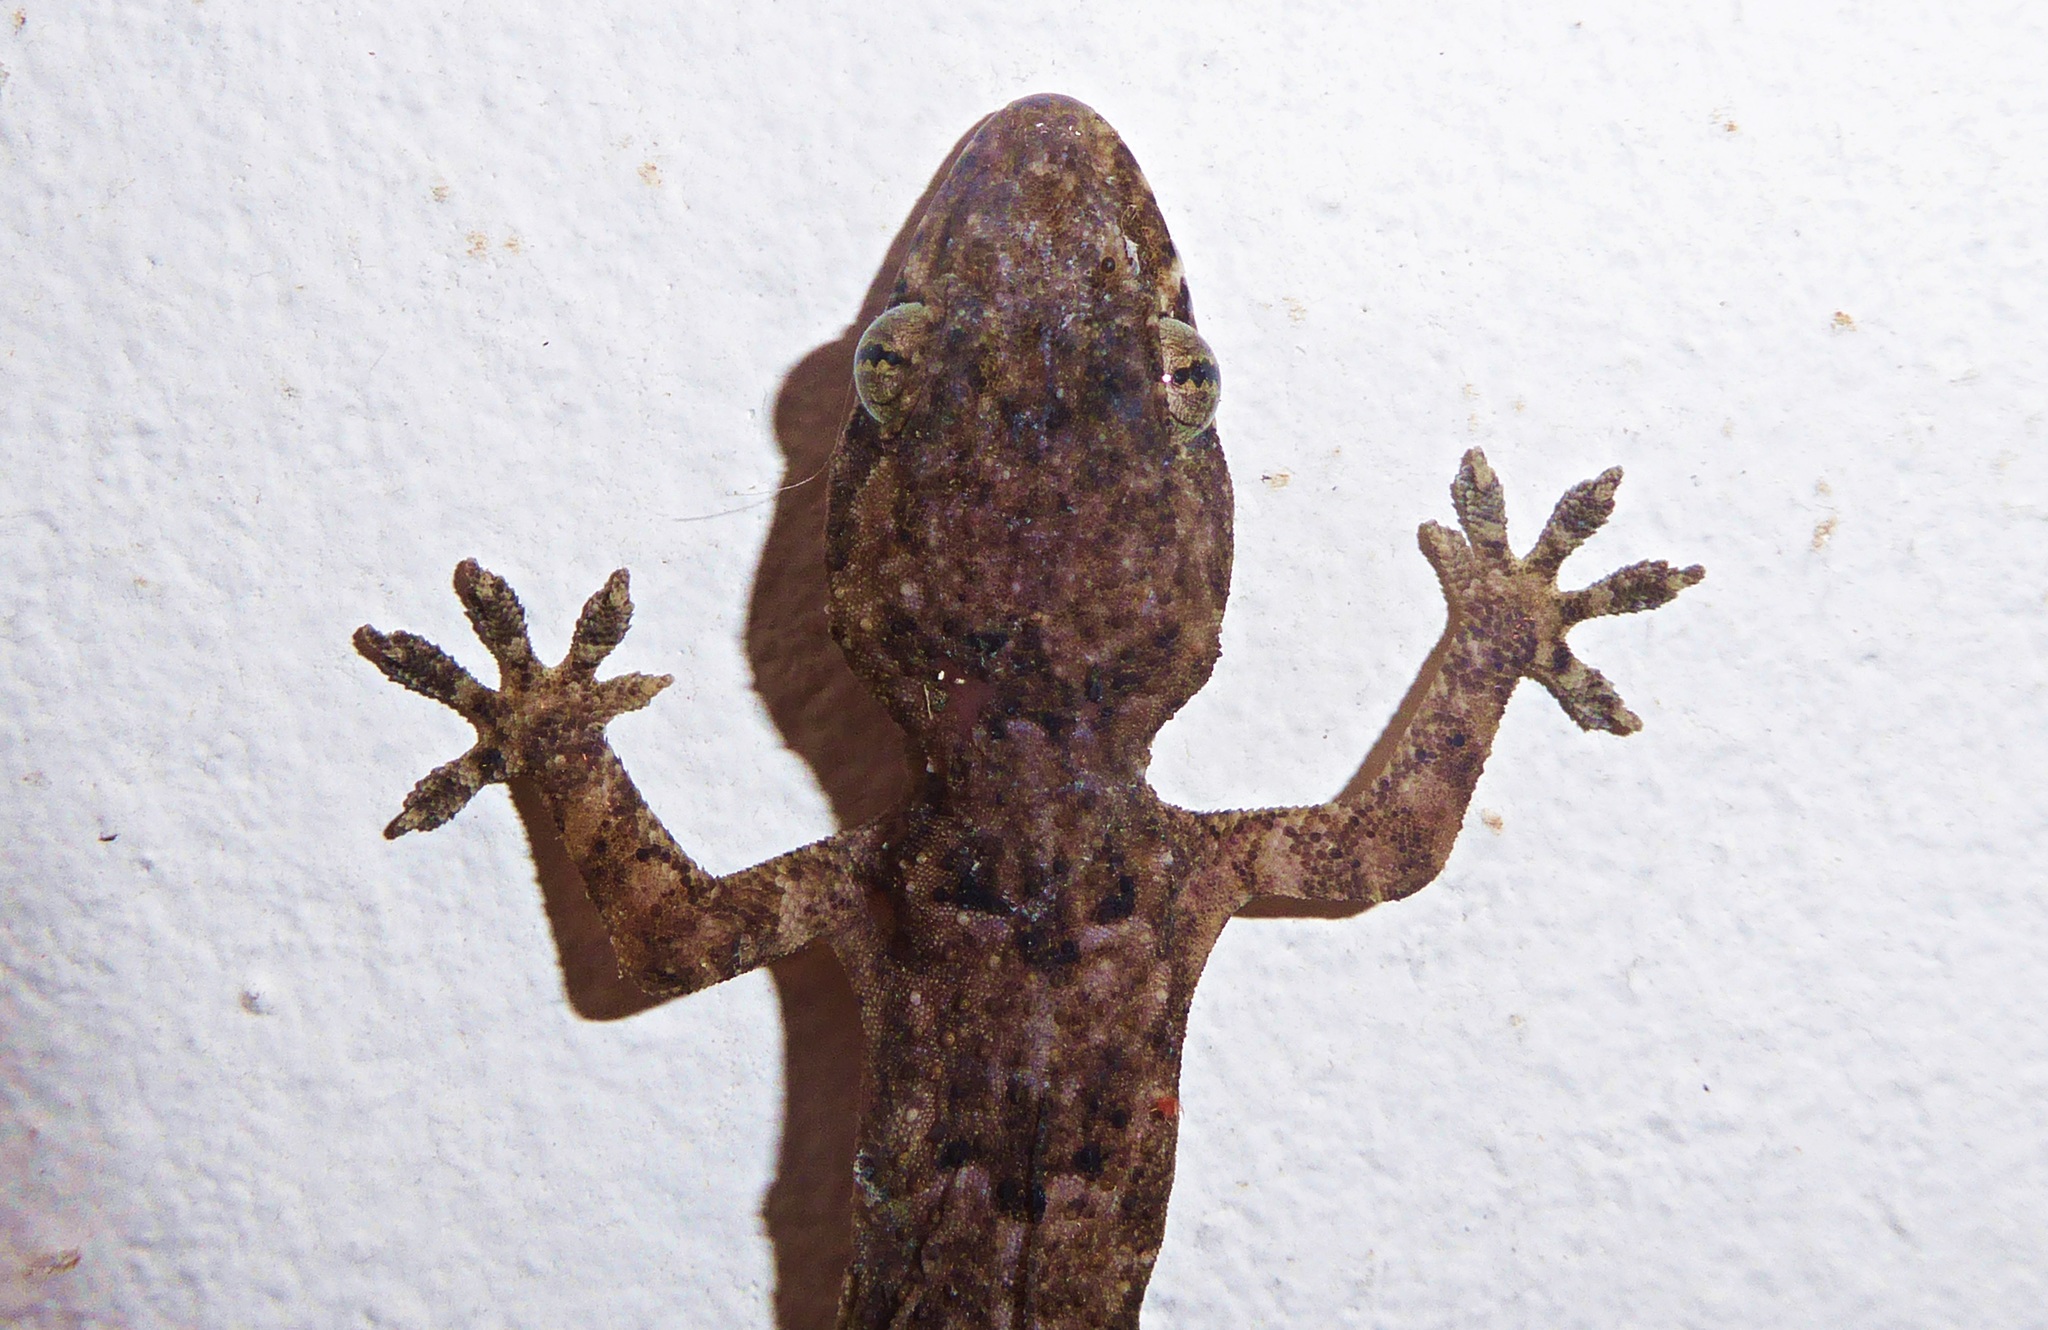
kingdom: Animalia
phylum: Chordata
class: Squamata
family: Gekkonidae
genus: Hemidactylus
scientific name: Hemidactylus mabouia
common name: House gecko
